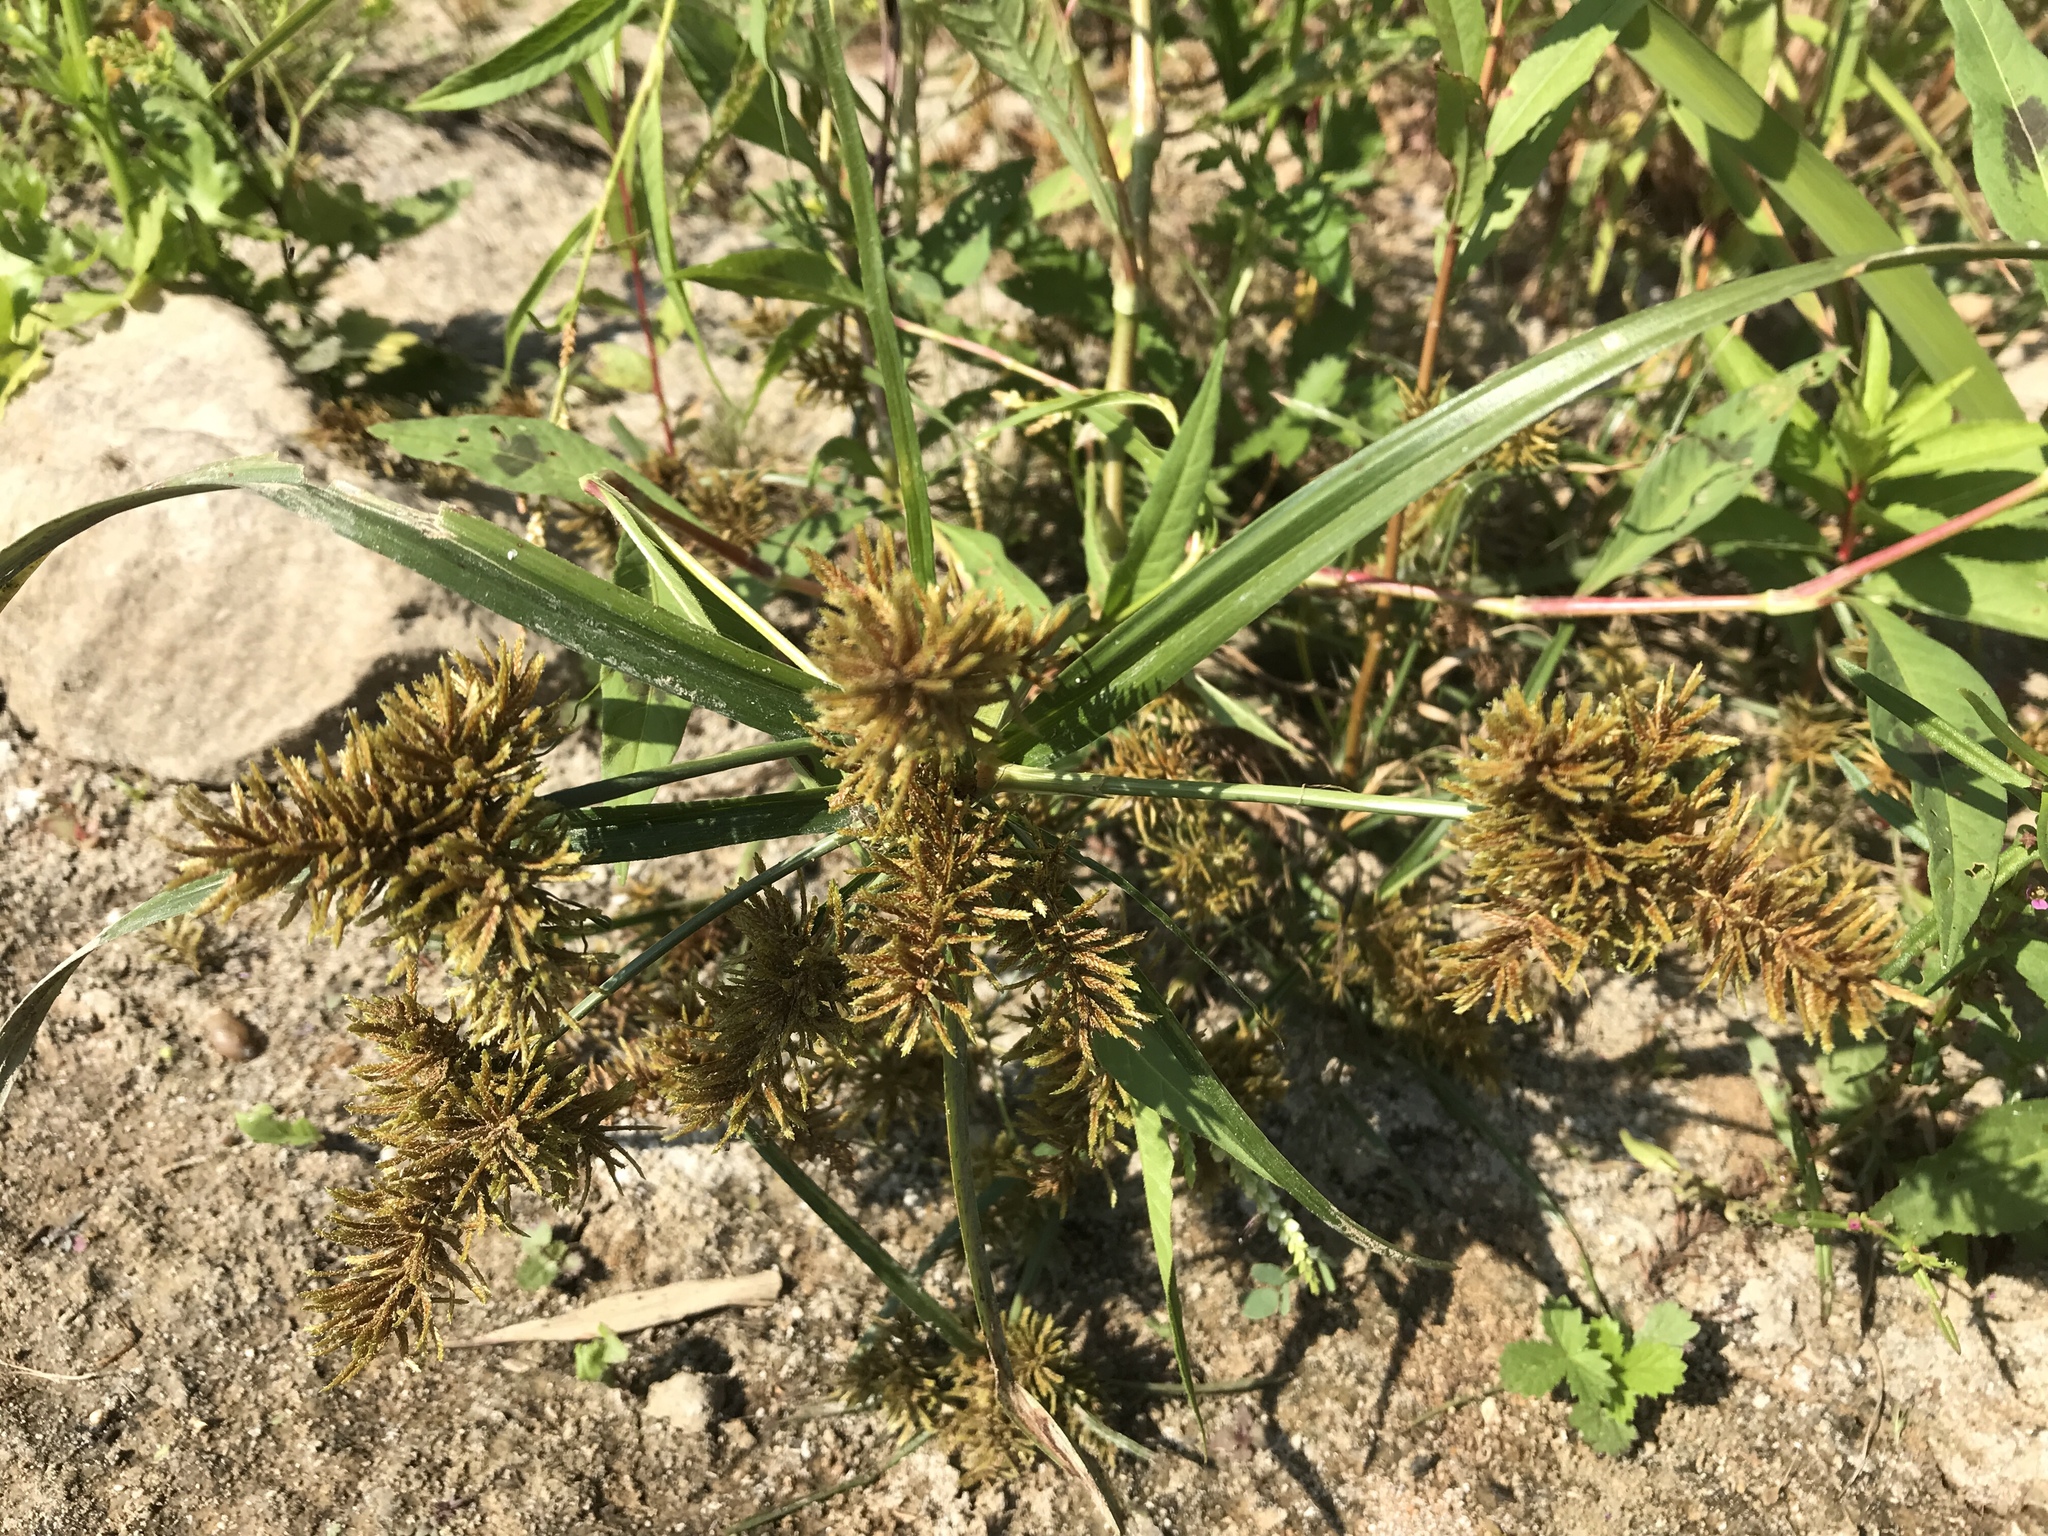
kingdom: Plantae
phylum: Tracheophyta
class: Liliopsida
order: Poales
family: Cyperaceae
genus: Cyperus
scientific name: Cyperus erythrorhizos
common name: Red-root flat sedge
